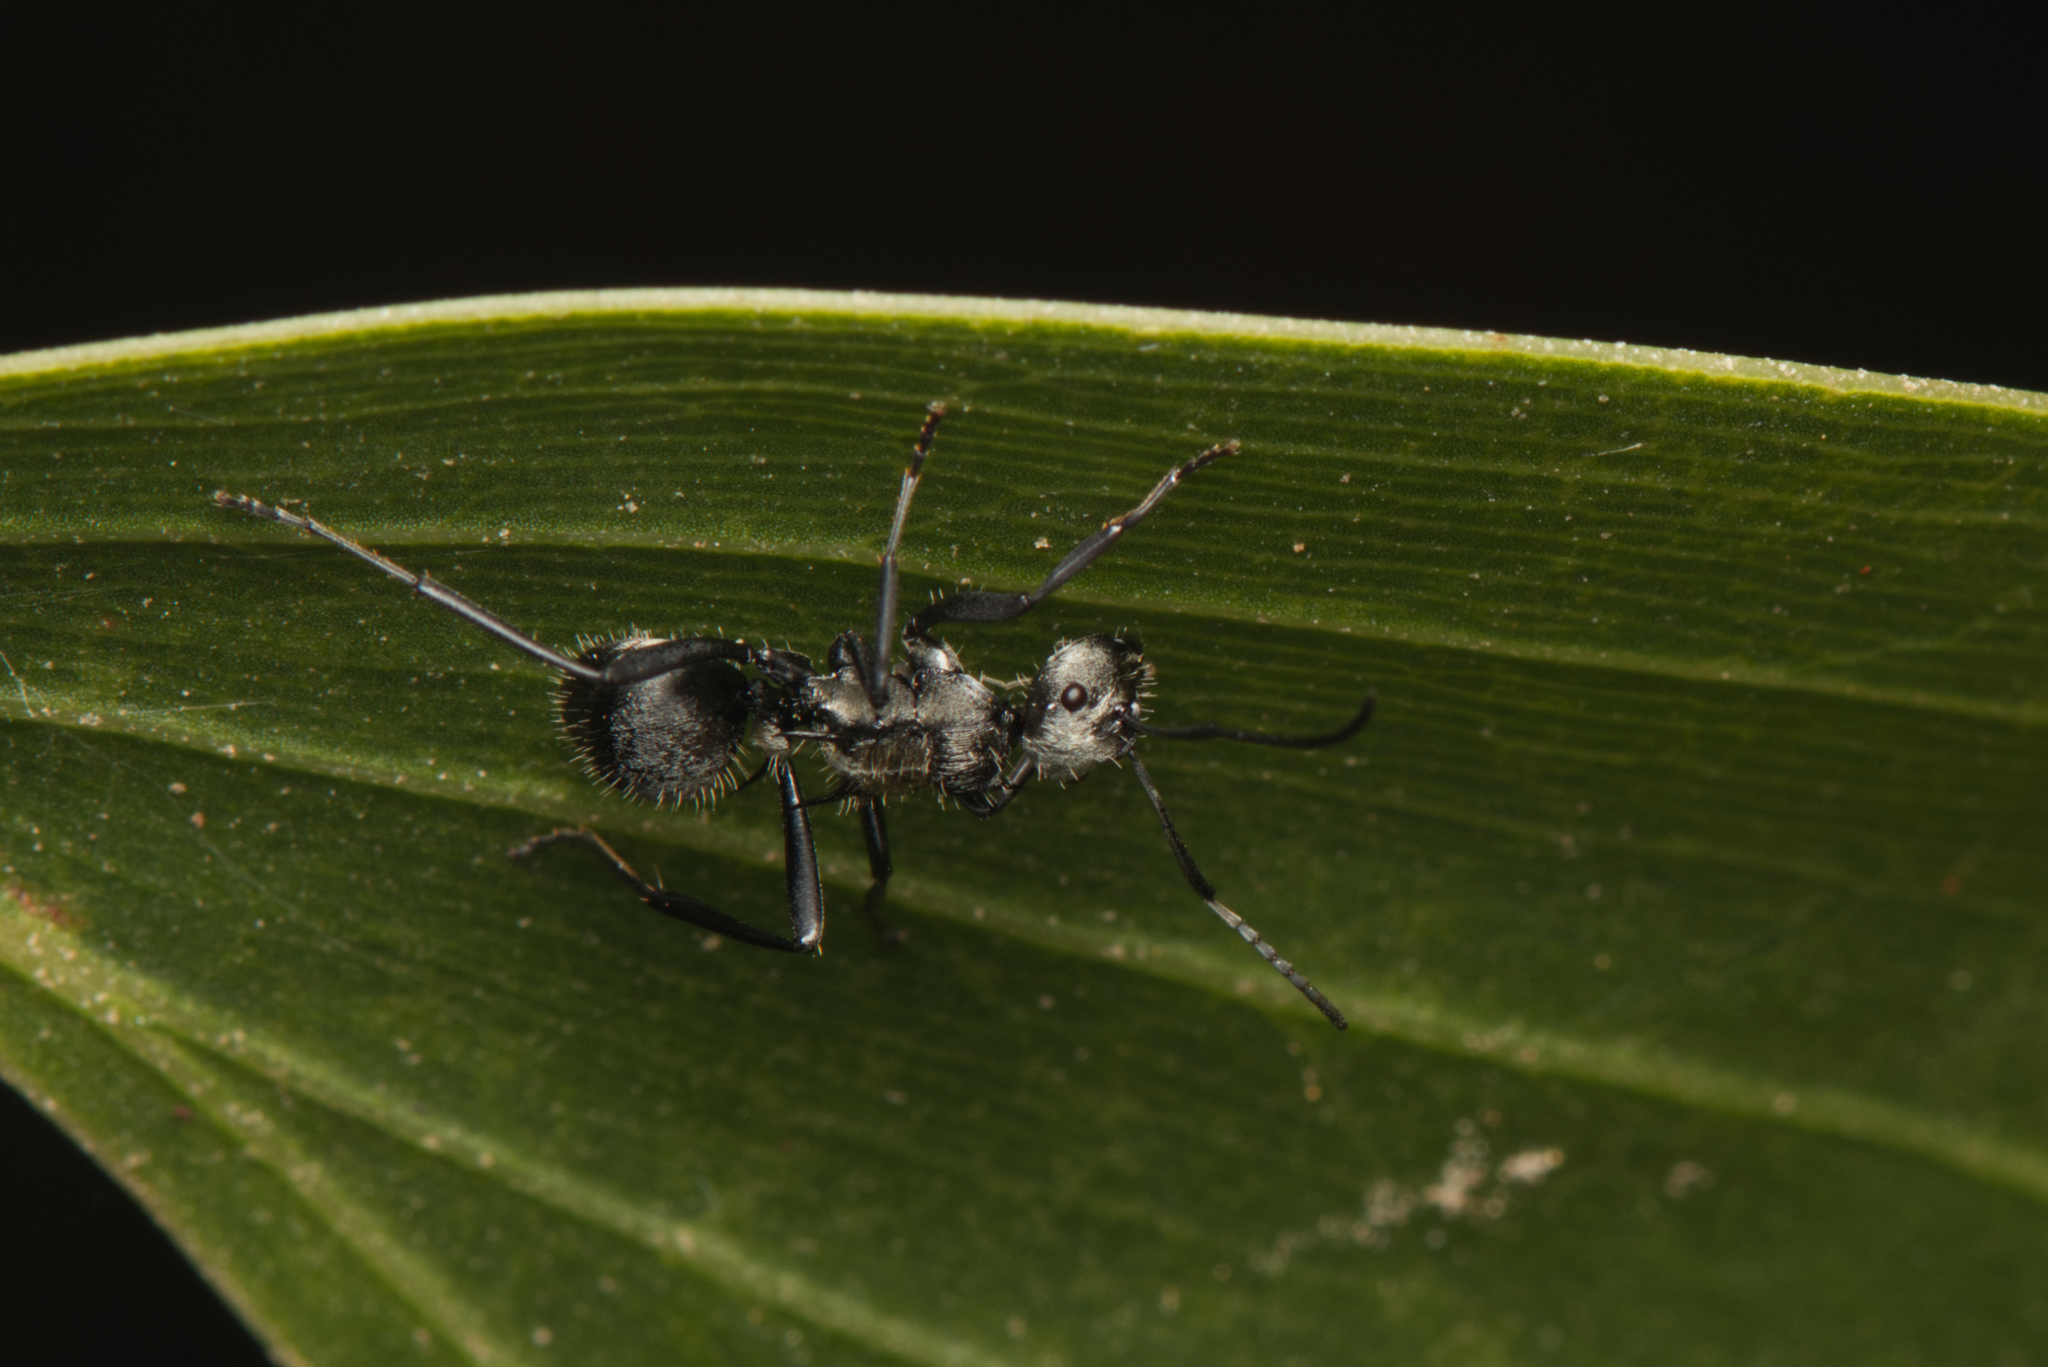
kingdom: Animalia
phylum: Arthropoda
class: Insecta
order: Hymenoptera
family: Formicidae
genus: Polyrhachis
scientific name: Polyrhachis daemeli
